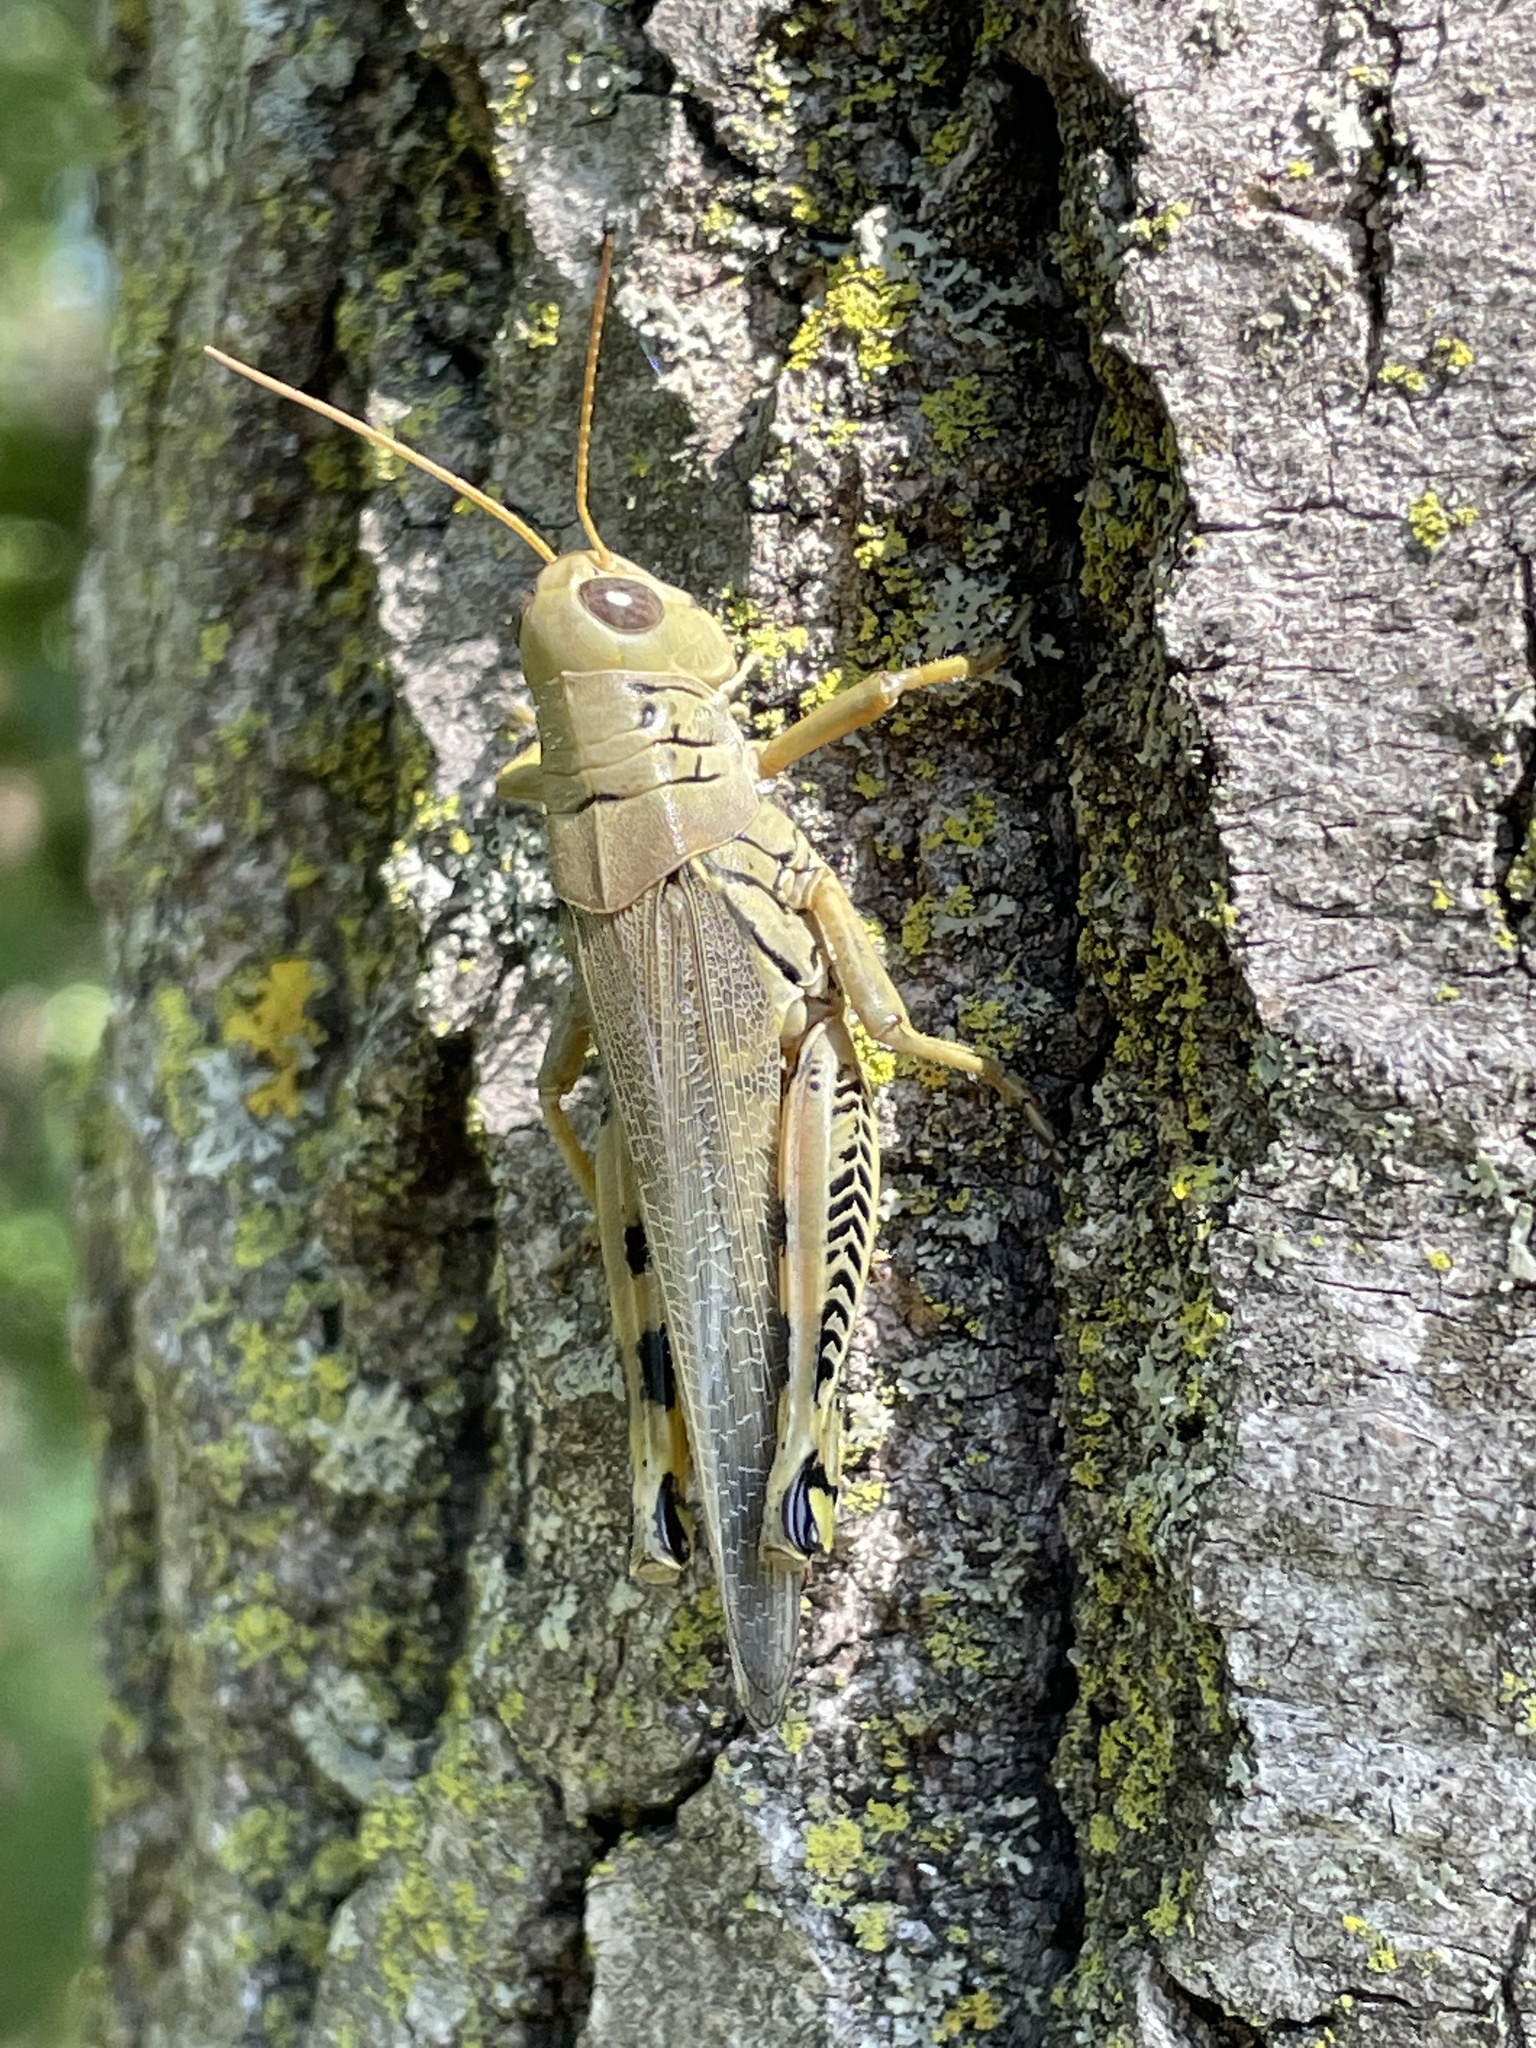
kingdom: Animalia
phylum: Arthropoda
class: Insecta
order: Orthoptera
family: Acrididae
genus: Melanoplus
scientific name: Melanoplus differentialis
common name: Differential grasshopper
